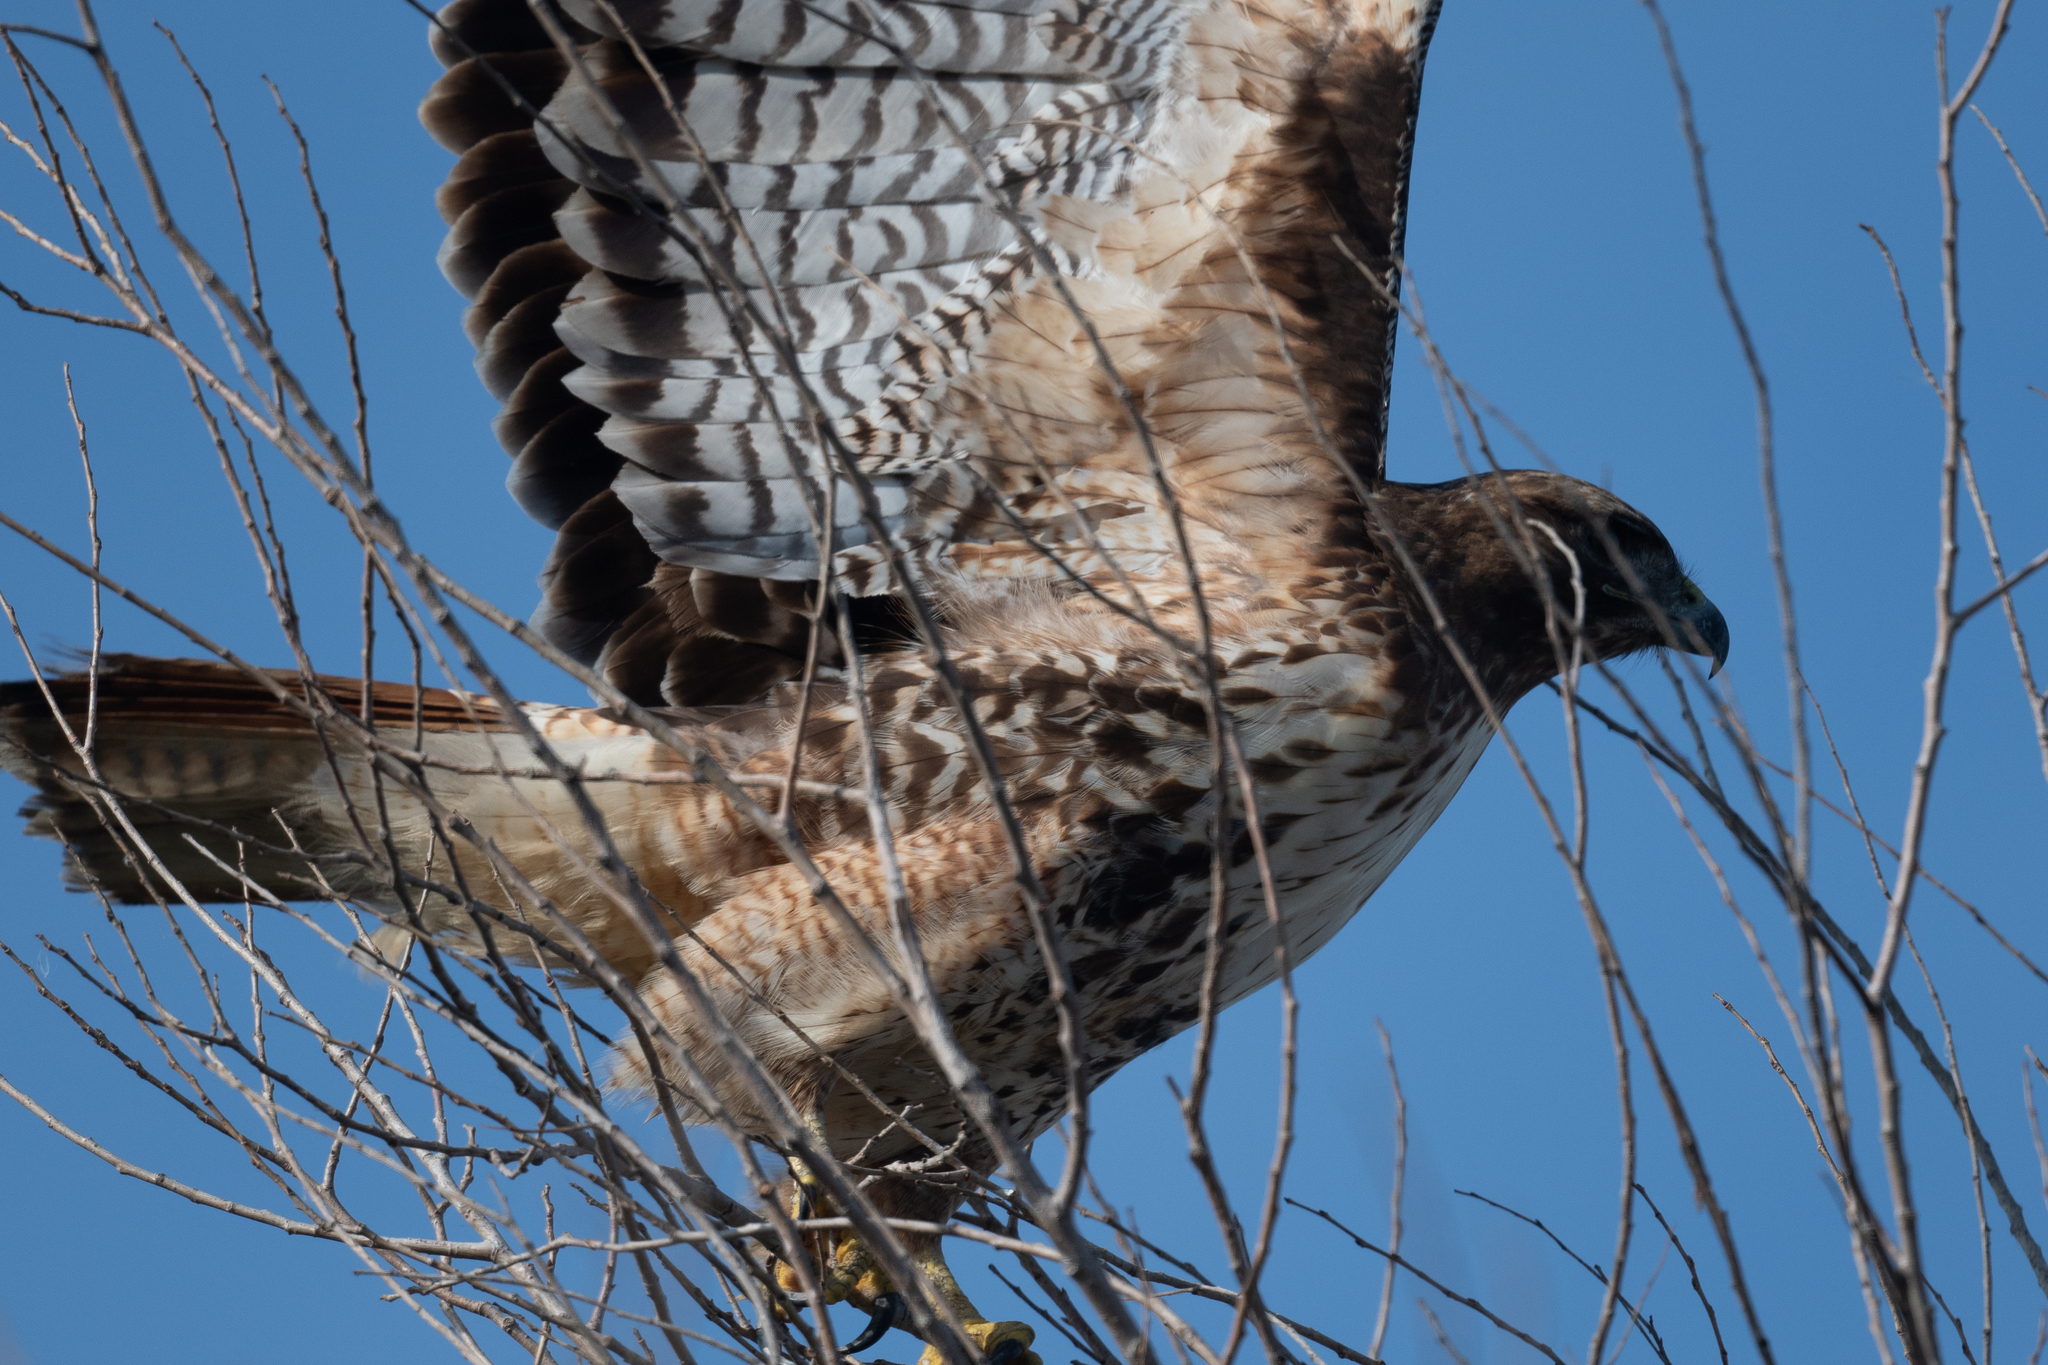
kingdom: Animalia
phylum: Chordata
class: Aves
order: Accipitriformes
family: Accipitridae
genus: Buteo
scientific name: Buteo jamaicensis
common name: Red-tailed hawk
